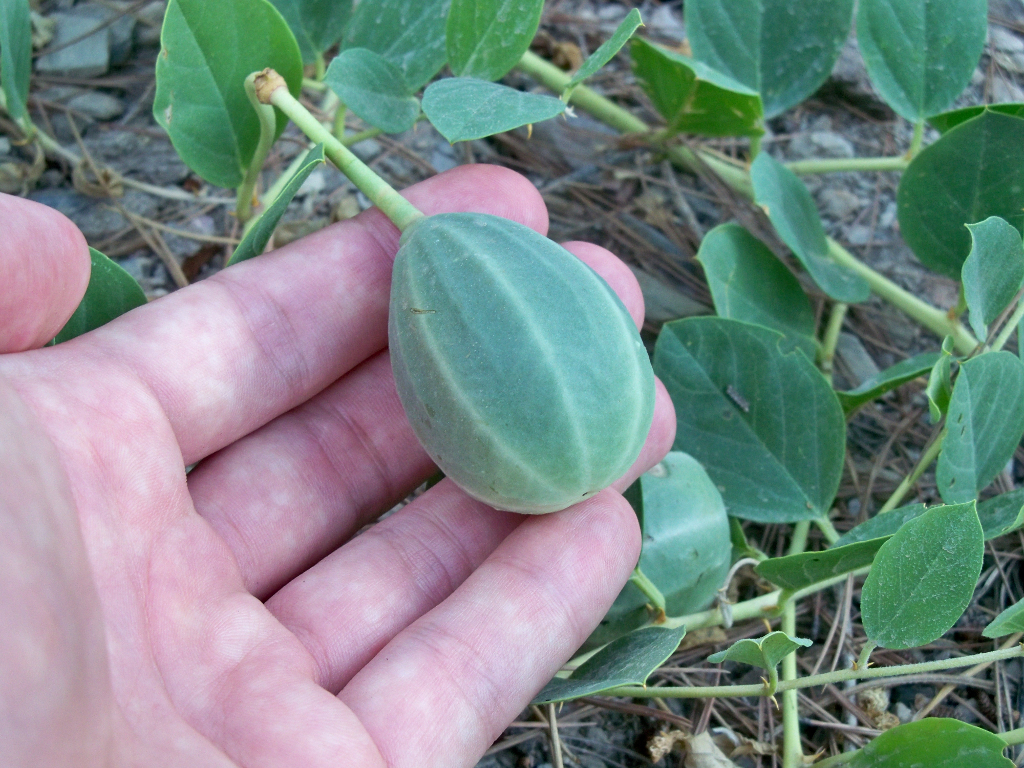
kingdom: Plantae
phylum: Tracheophyta
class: Magnoliopsida
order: Brassicales
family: Capparaceae
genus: Capparis
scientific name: Capparis spinosa
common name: Caper
